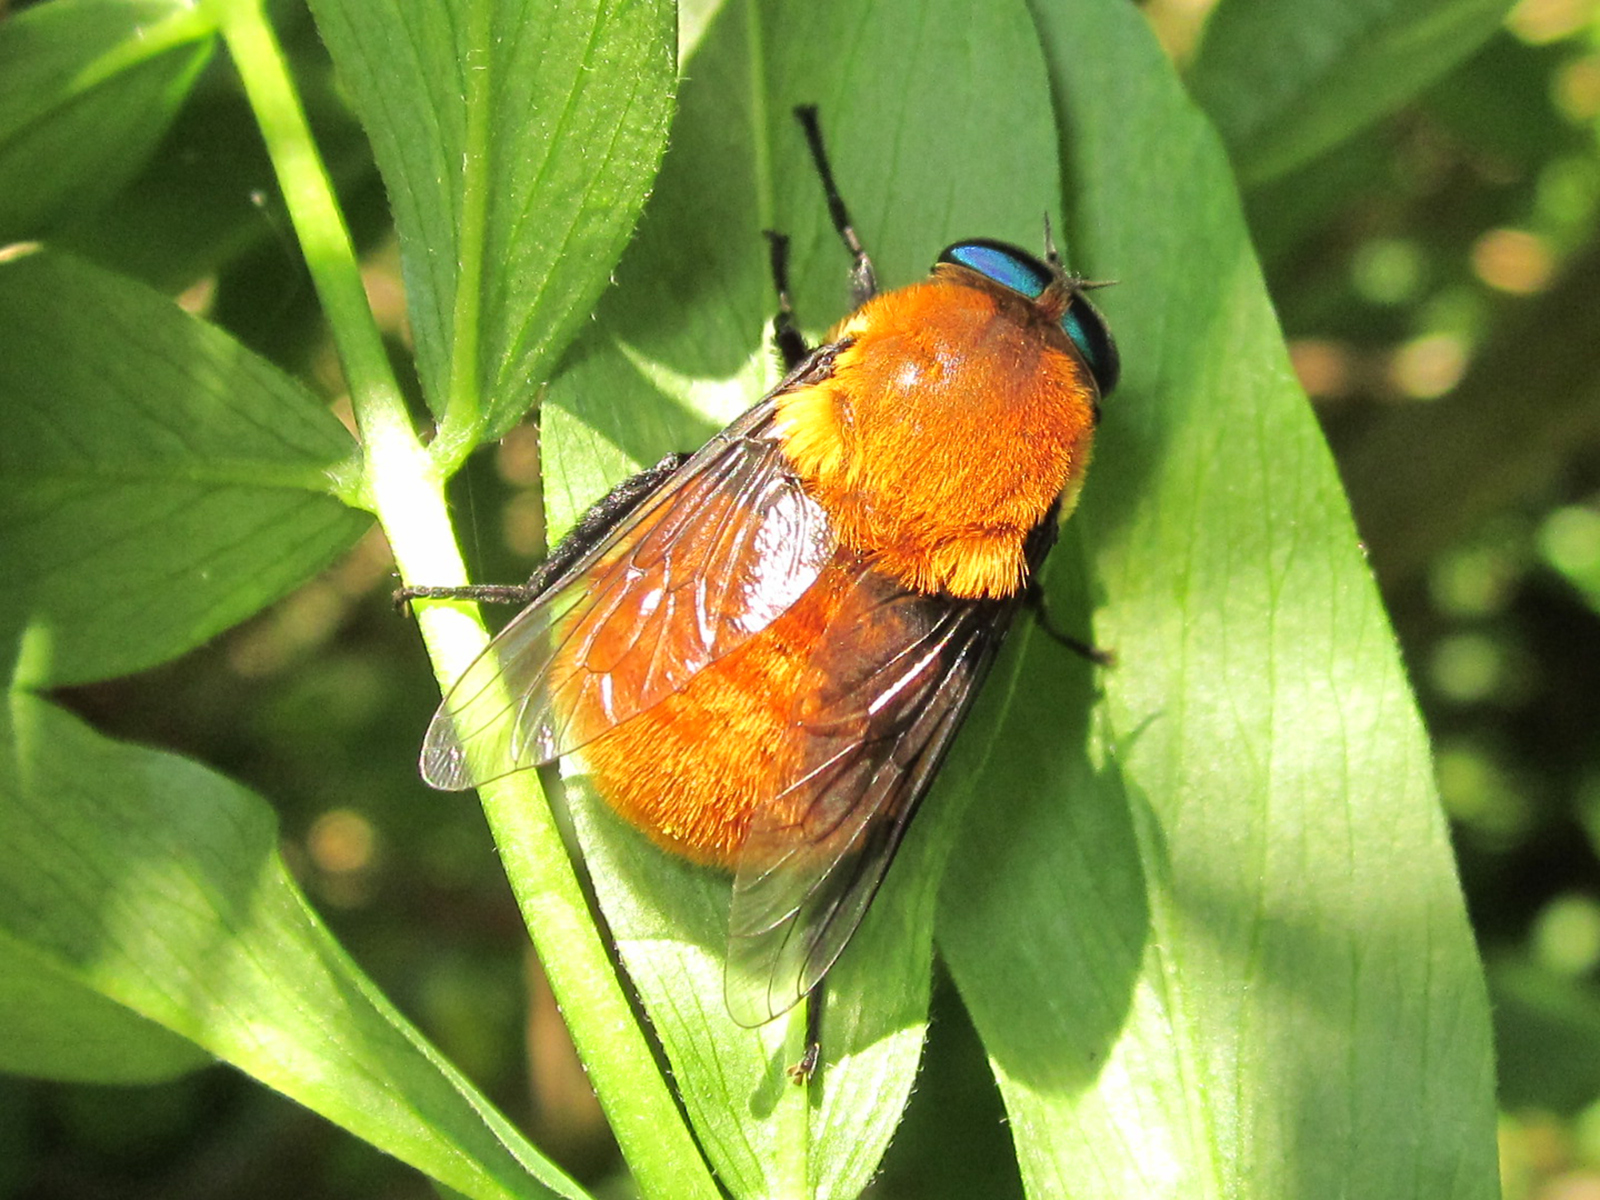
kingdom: Animalia
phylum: Arthropoda
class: Insecta
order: Diptera
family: Tabanidae
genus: Osca
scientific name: Osca rufa
